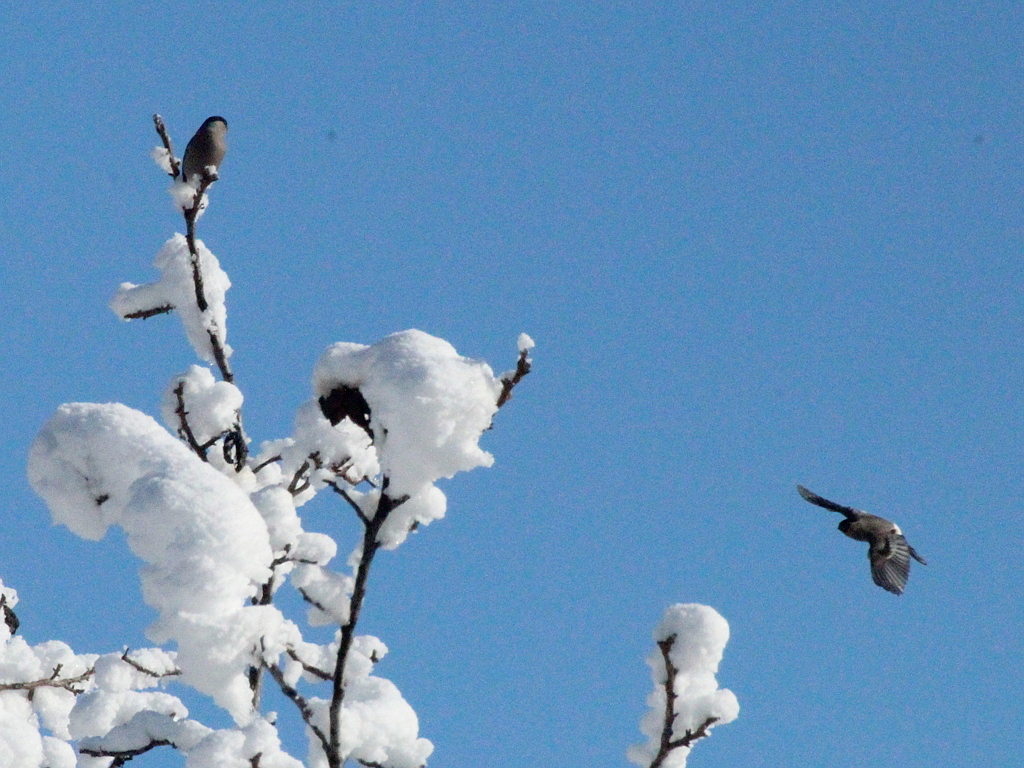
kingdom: Animalia
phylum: Chordata
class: Aves
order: Passeriformes
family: Fringillidae
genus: Pyrrhula
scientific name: Pyrrhula pyrrhula
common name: Eurasian bullfinch
